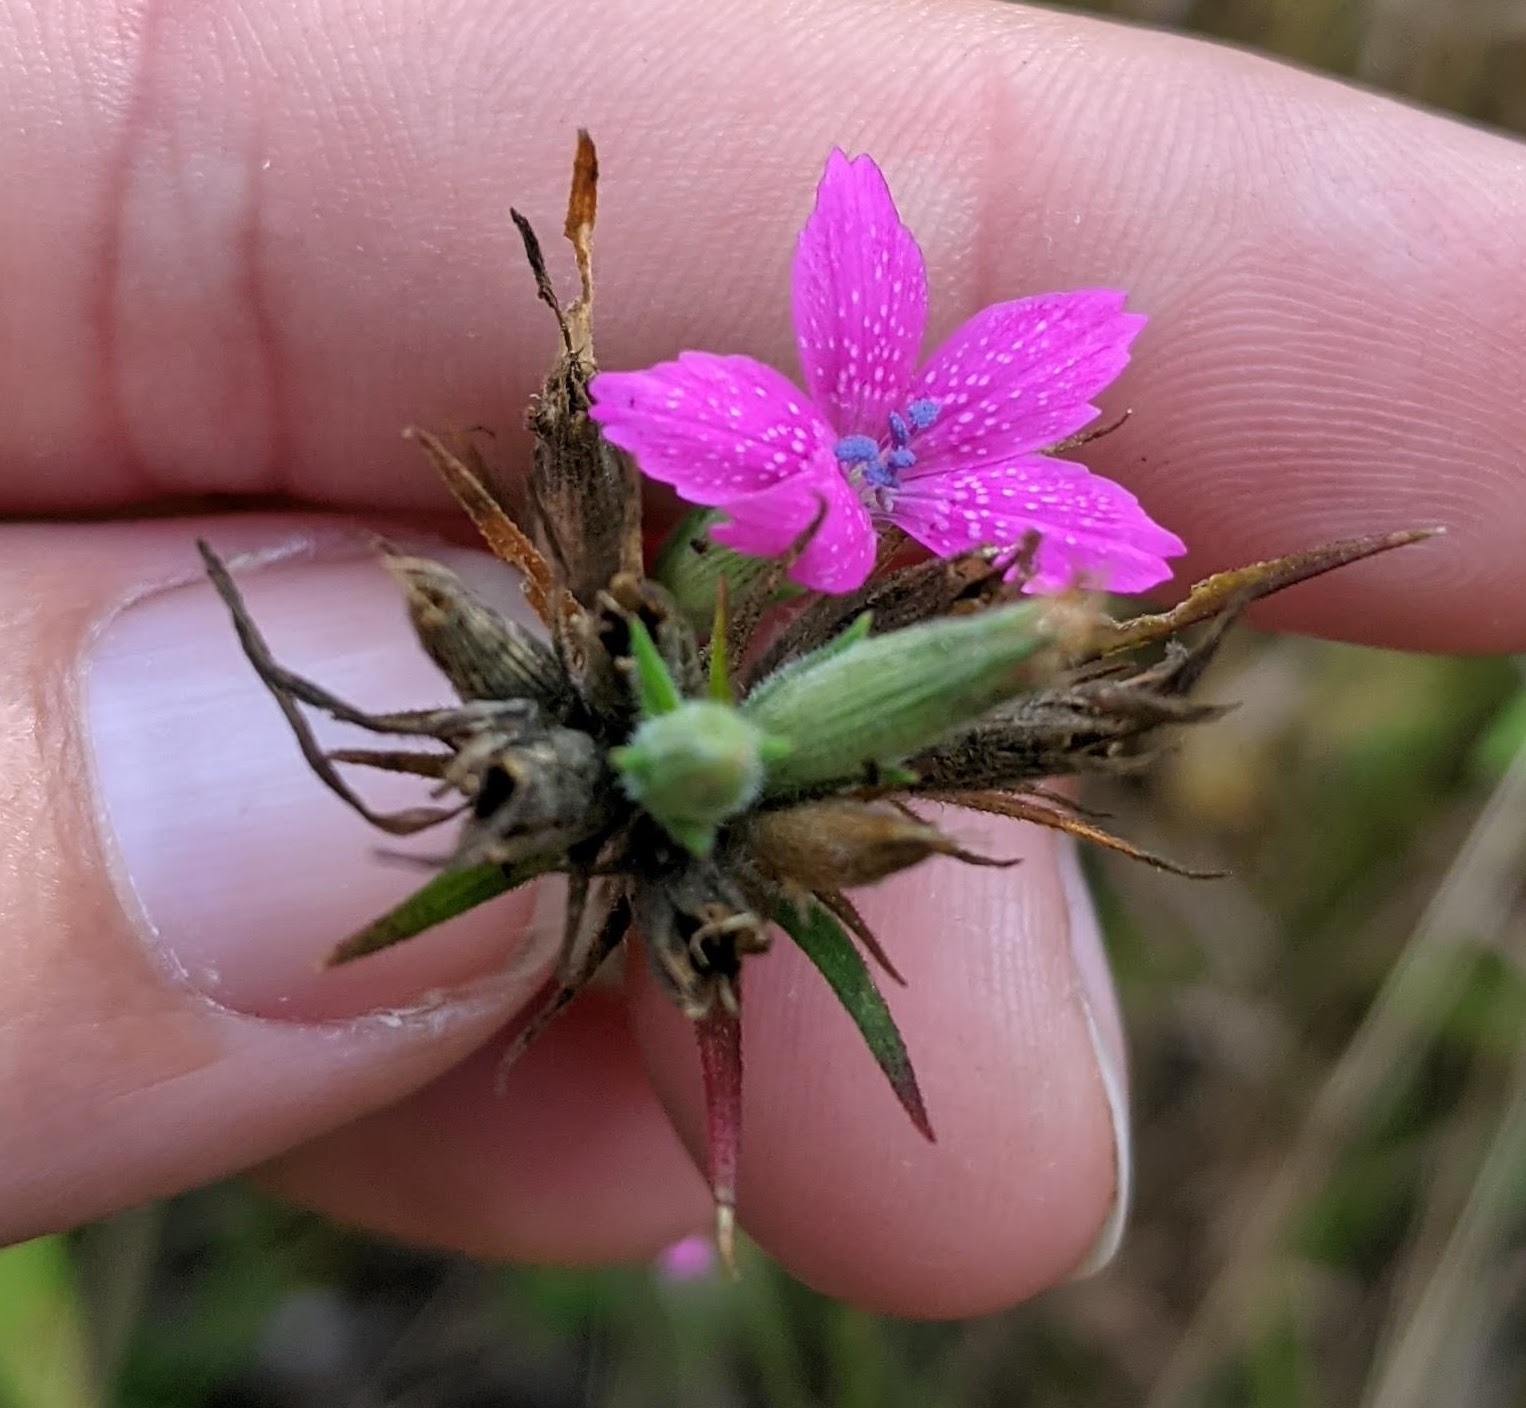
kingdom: Plantae
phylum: Tracheophyta
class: Magnoliopsida
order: Caryophyllales
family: Caryophyllaceae
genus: Dianthus
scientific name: Dianthus armeria
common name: Deptford pink
